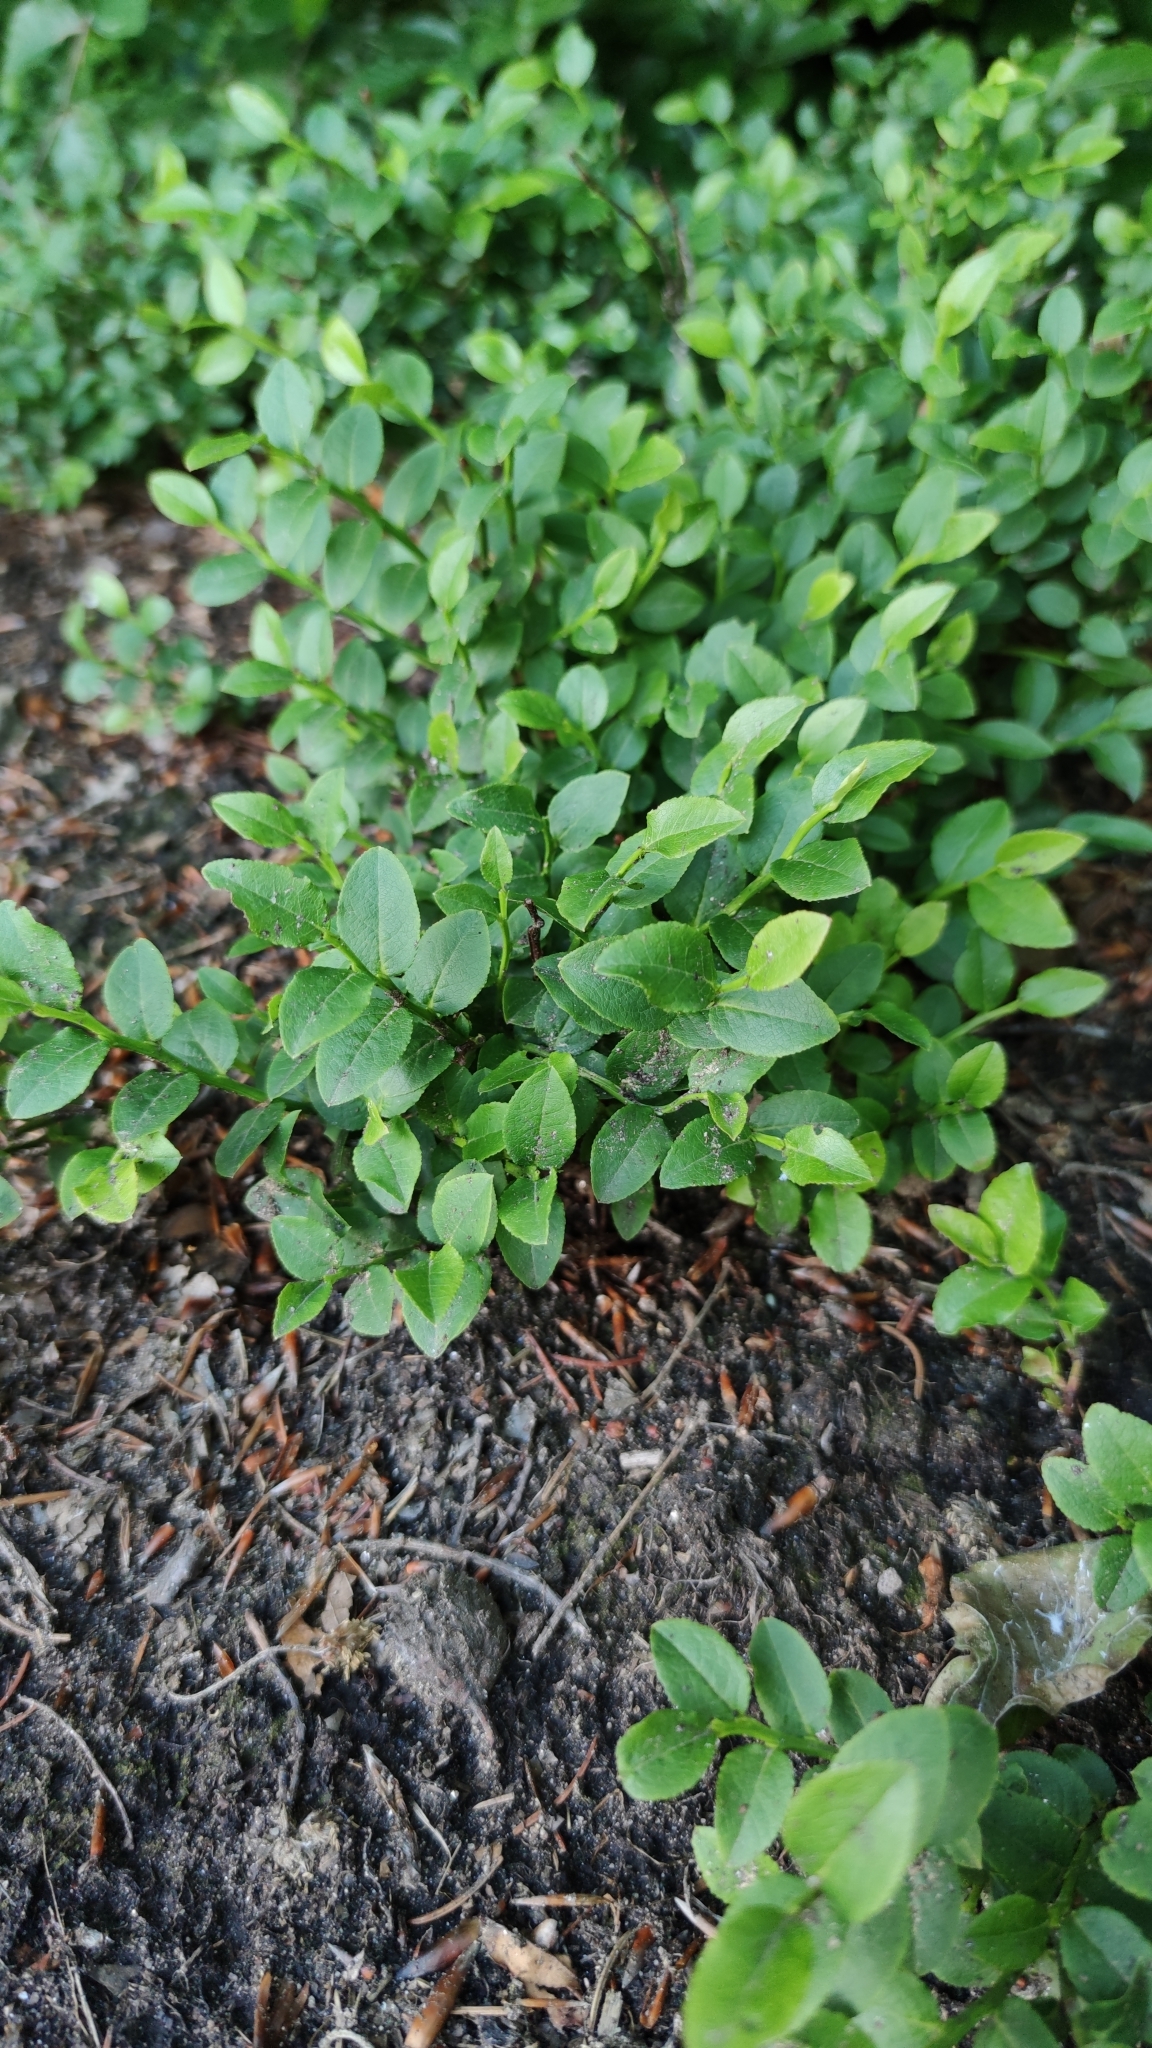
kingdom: Plantae
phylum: Tracheophyta
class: Magnoliopsida
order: Ericales
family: Ericaceae
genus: Vaccinium
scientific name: Vaccinium myrtillus
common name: Bilberry
